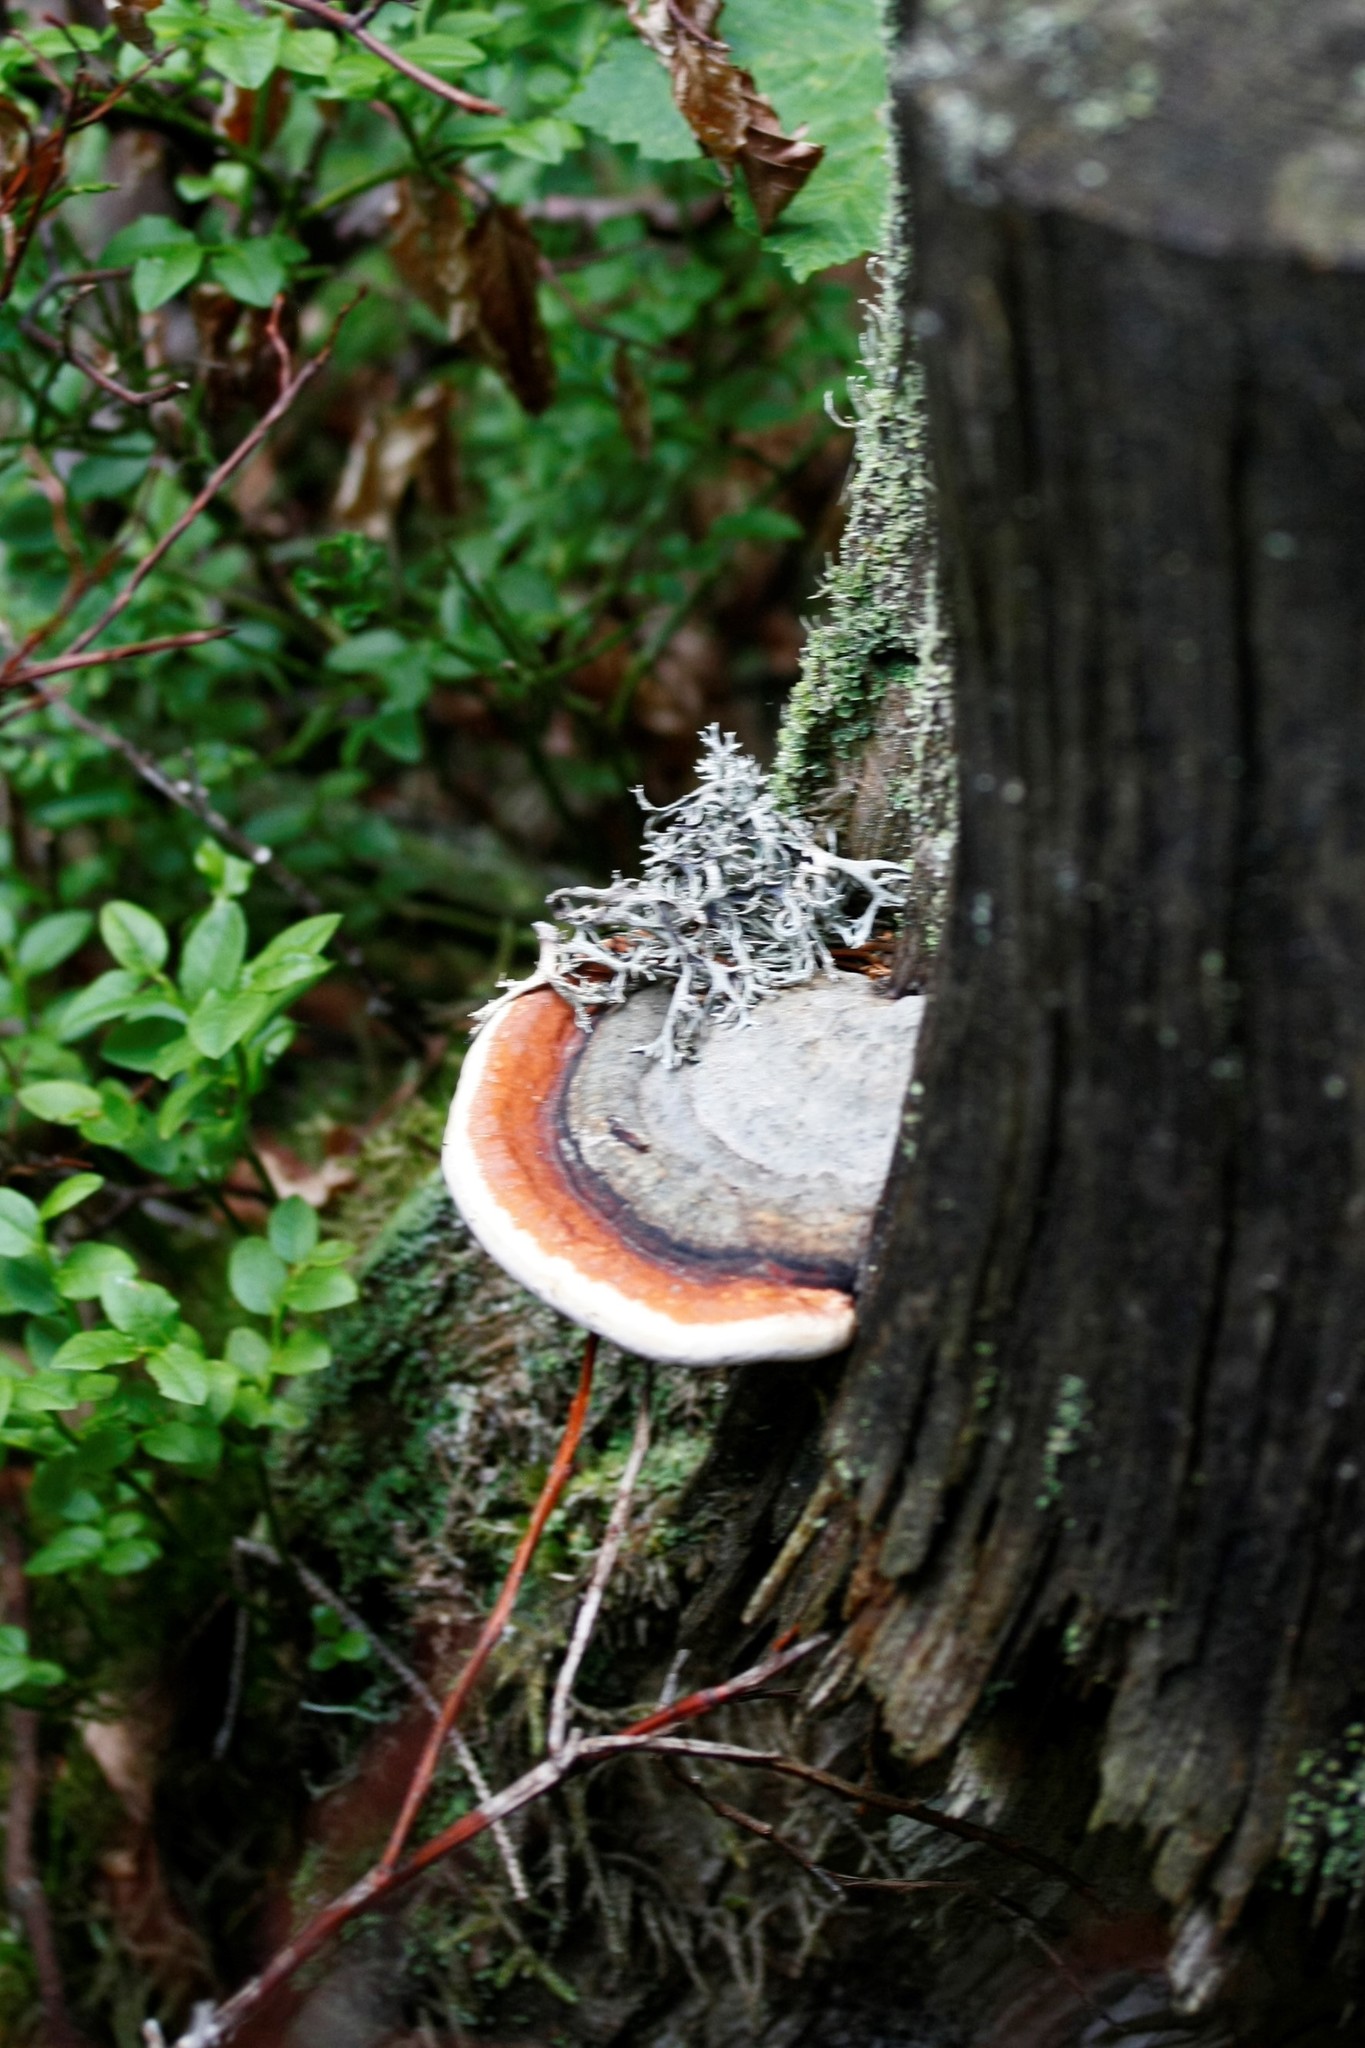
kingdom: Fungi
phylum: Basidiomycota
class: Agaricomycetes
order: Polyporales
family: Fomitopsidaceae
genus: Fomitopsis
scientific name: Fomitopsis pinicola
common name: Red-belted bracket
